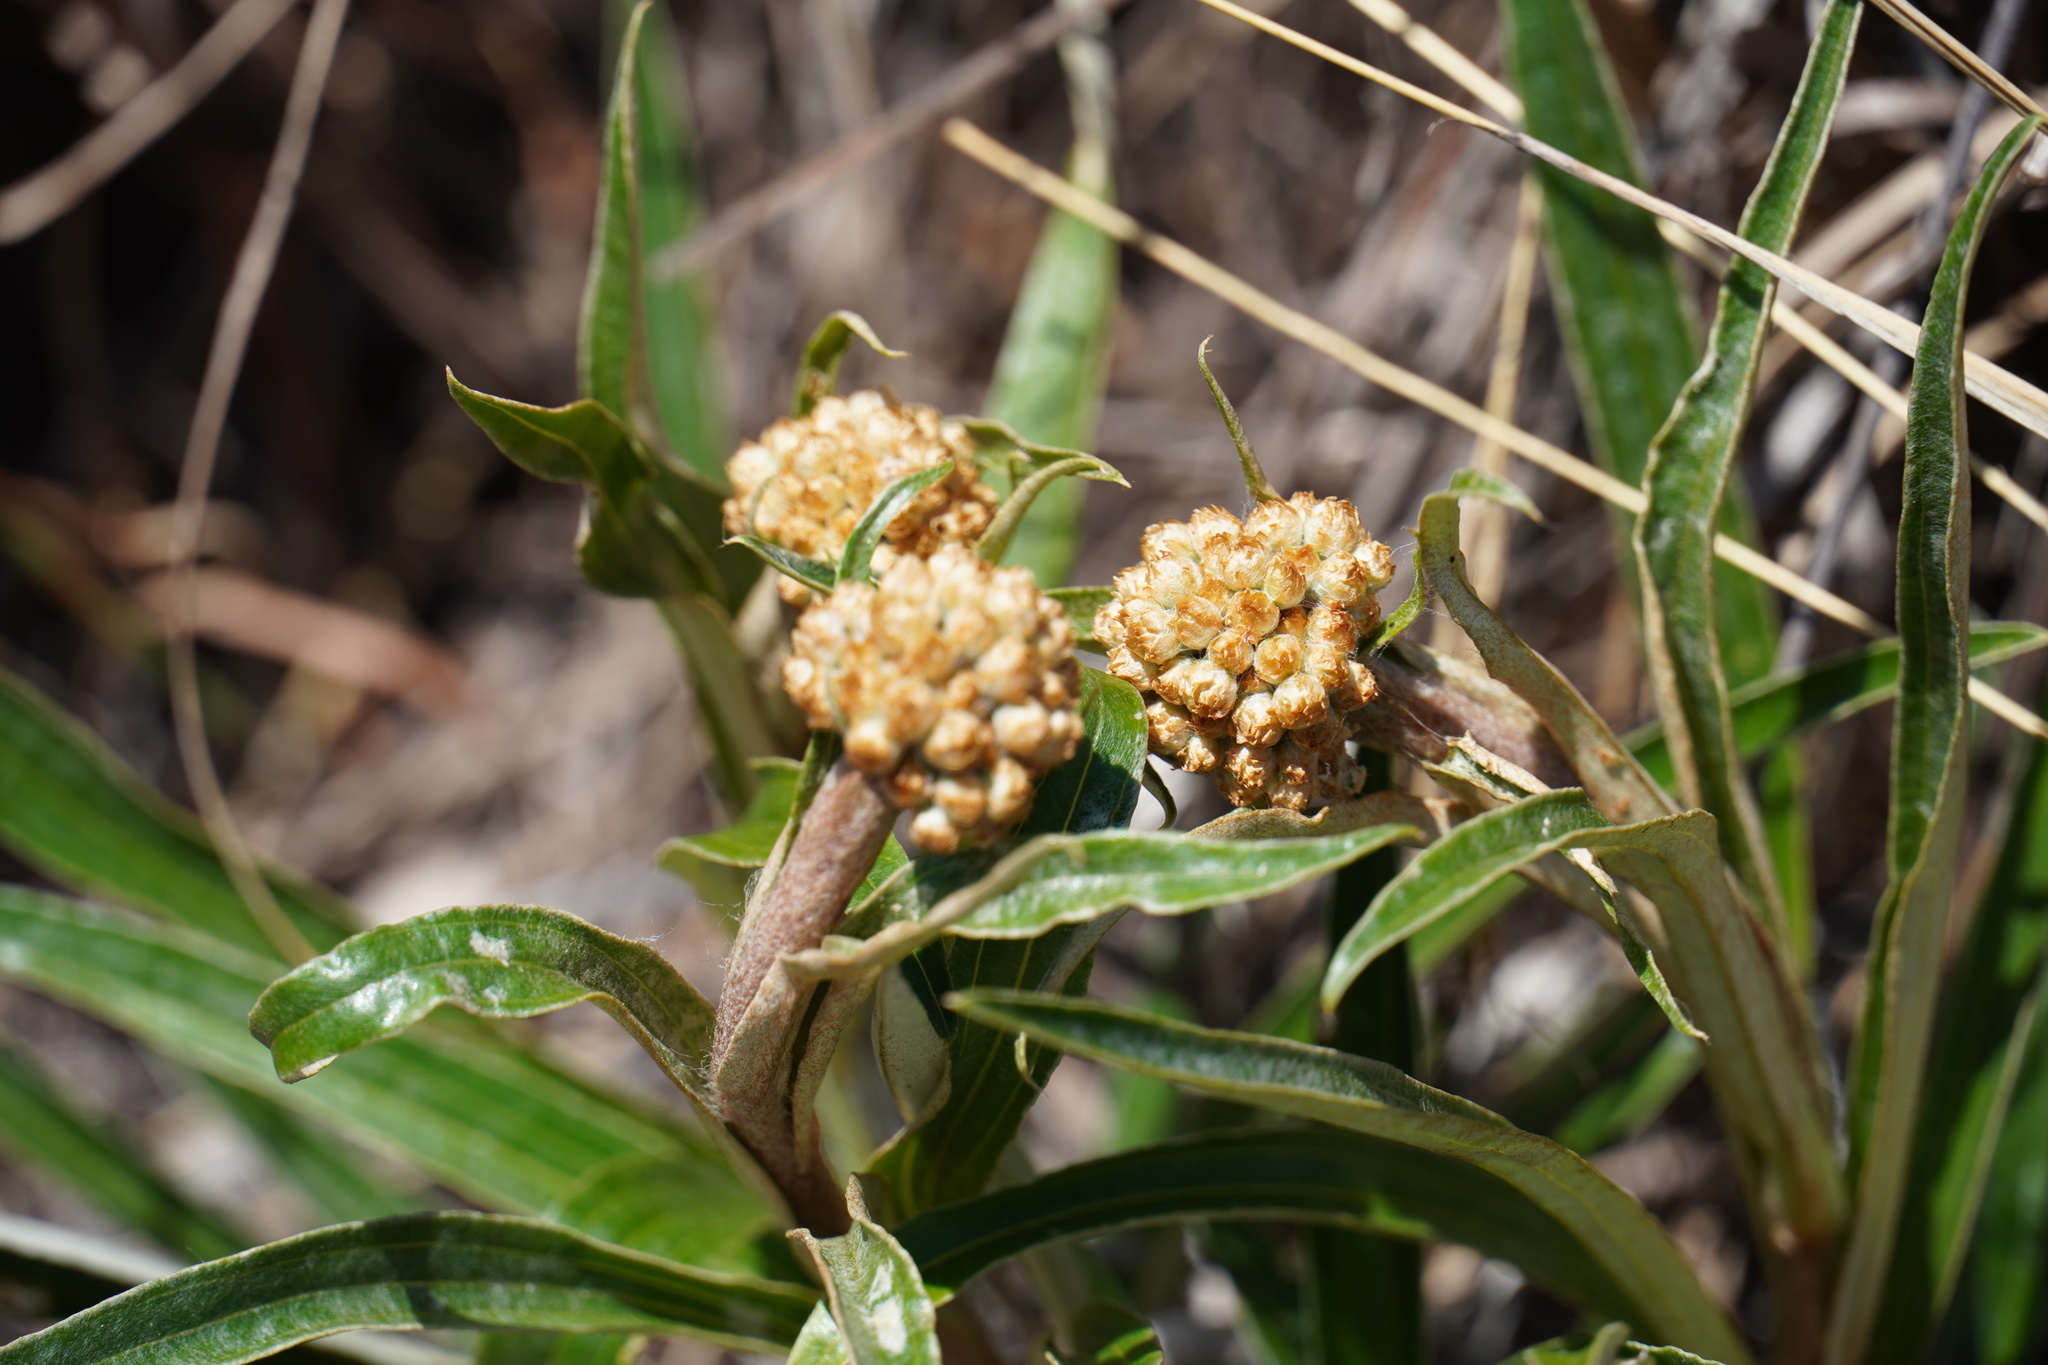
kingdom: Plantae
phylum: Tracheophyta
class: Magnoliopsida
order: Asterales
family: Asteraceae
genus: Helichrysum
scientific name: Helichrysum nudifolium
